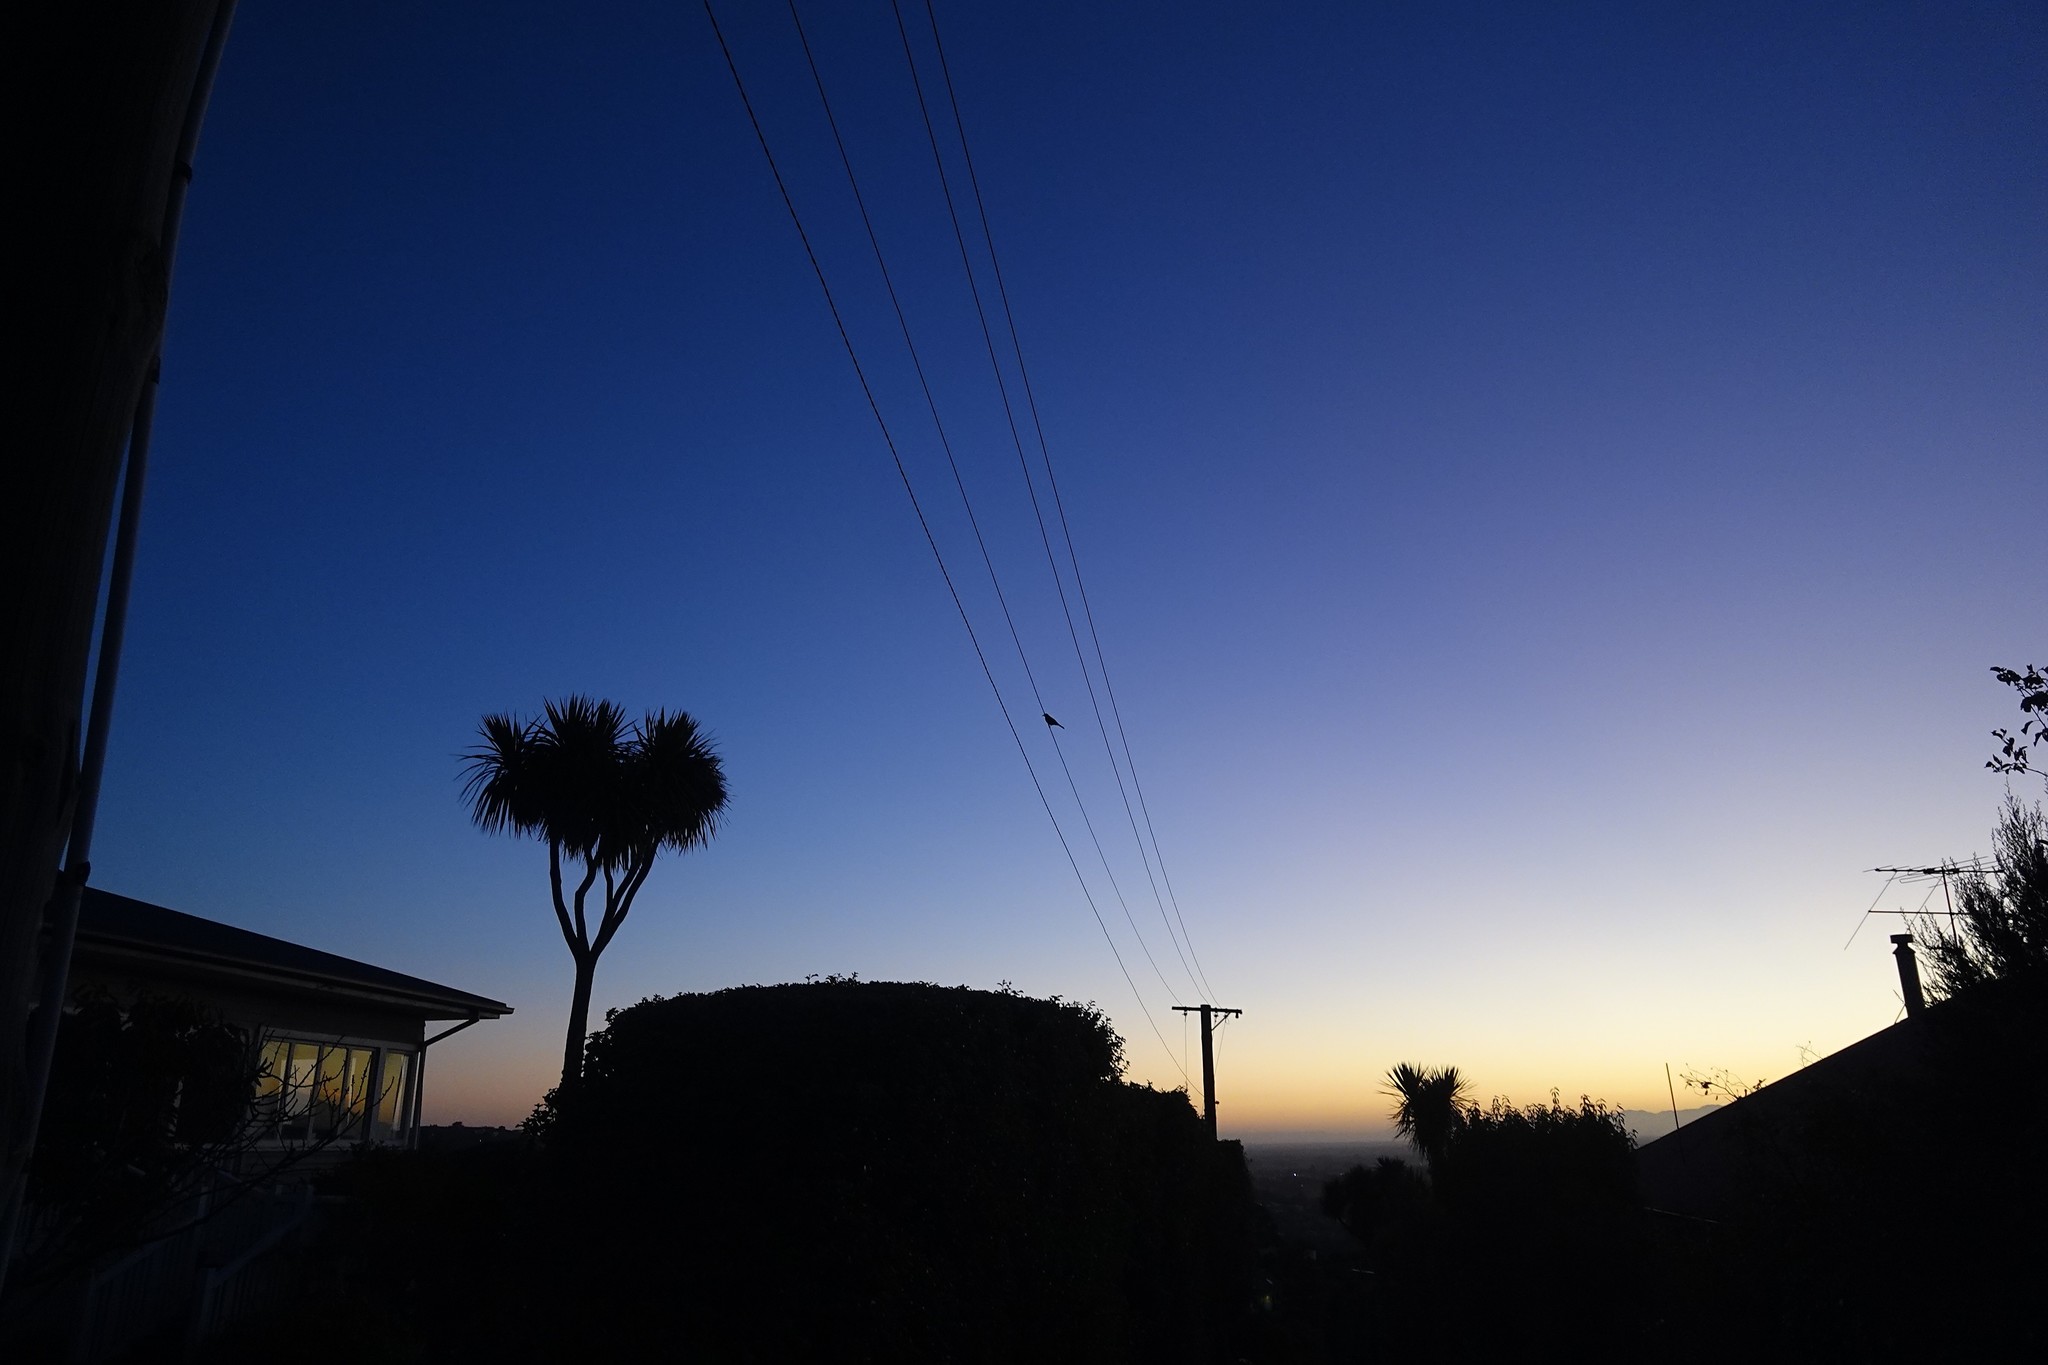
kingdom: Animalia
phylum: Chordata
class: Aves
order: Passeriformes
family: Turdidae
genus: Turdus
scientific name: Turdus merula
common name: Common blackbird
